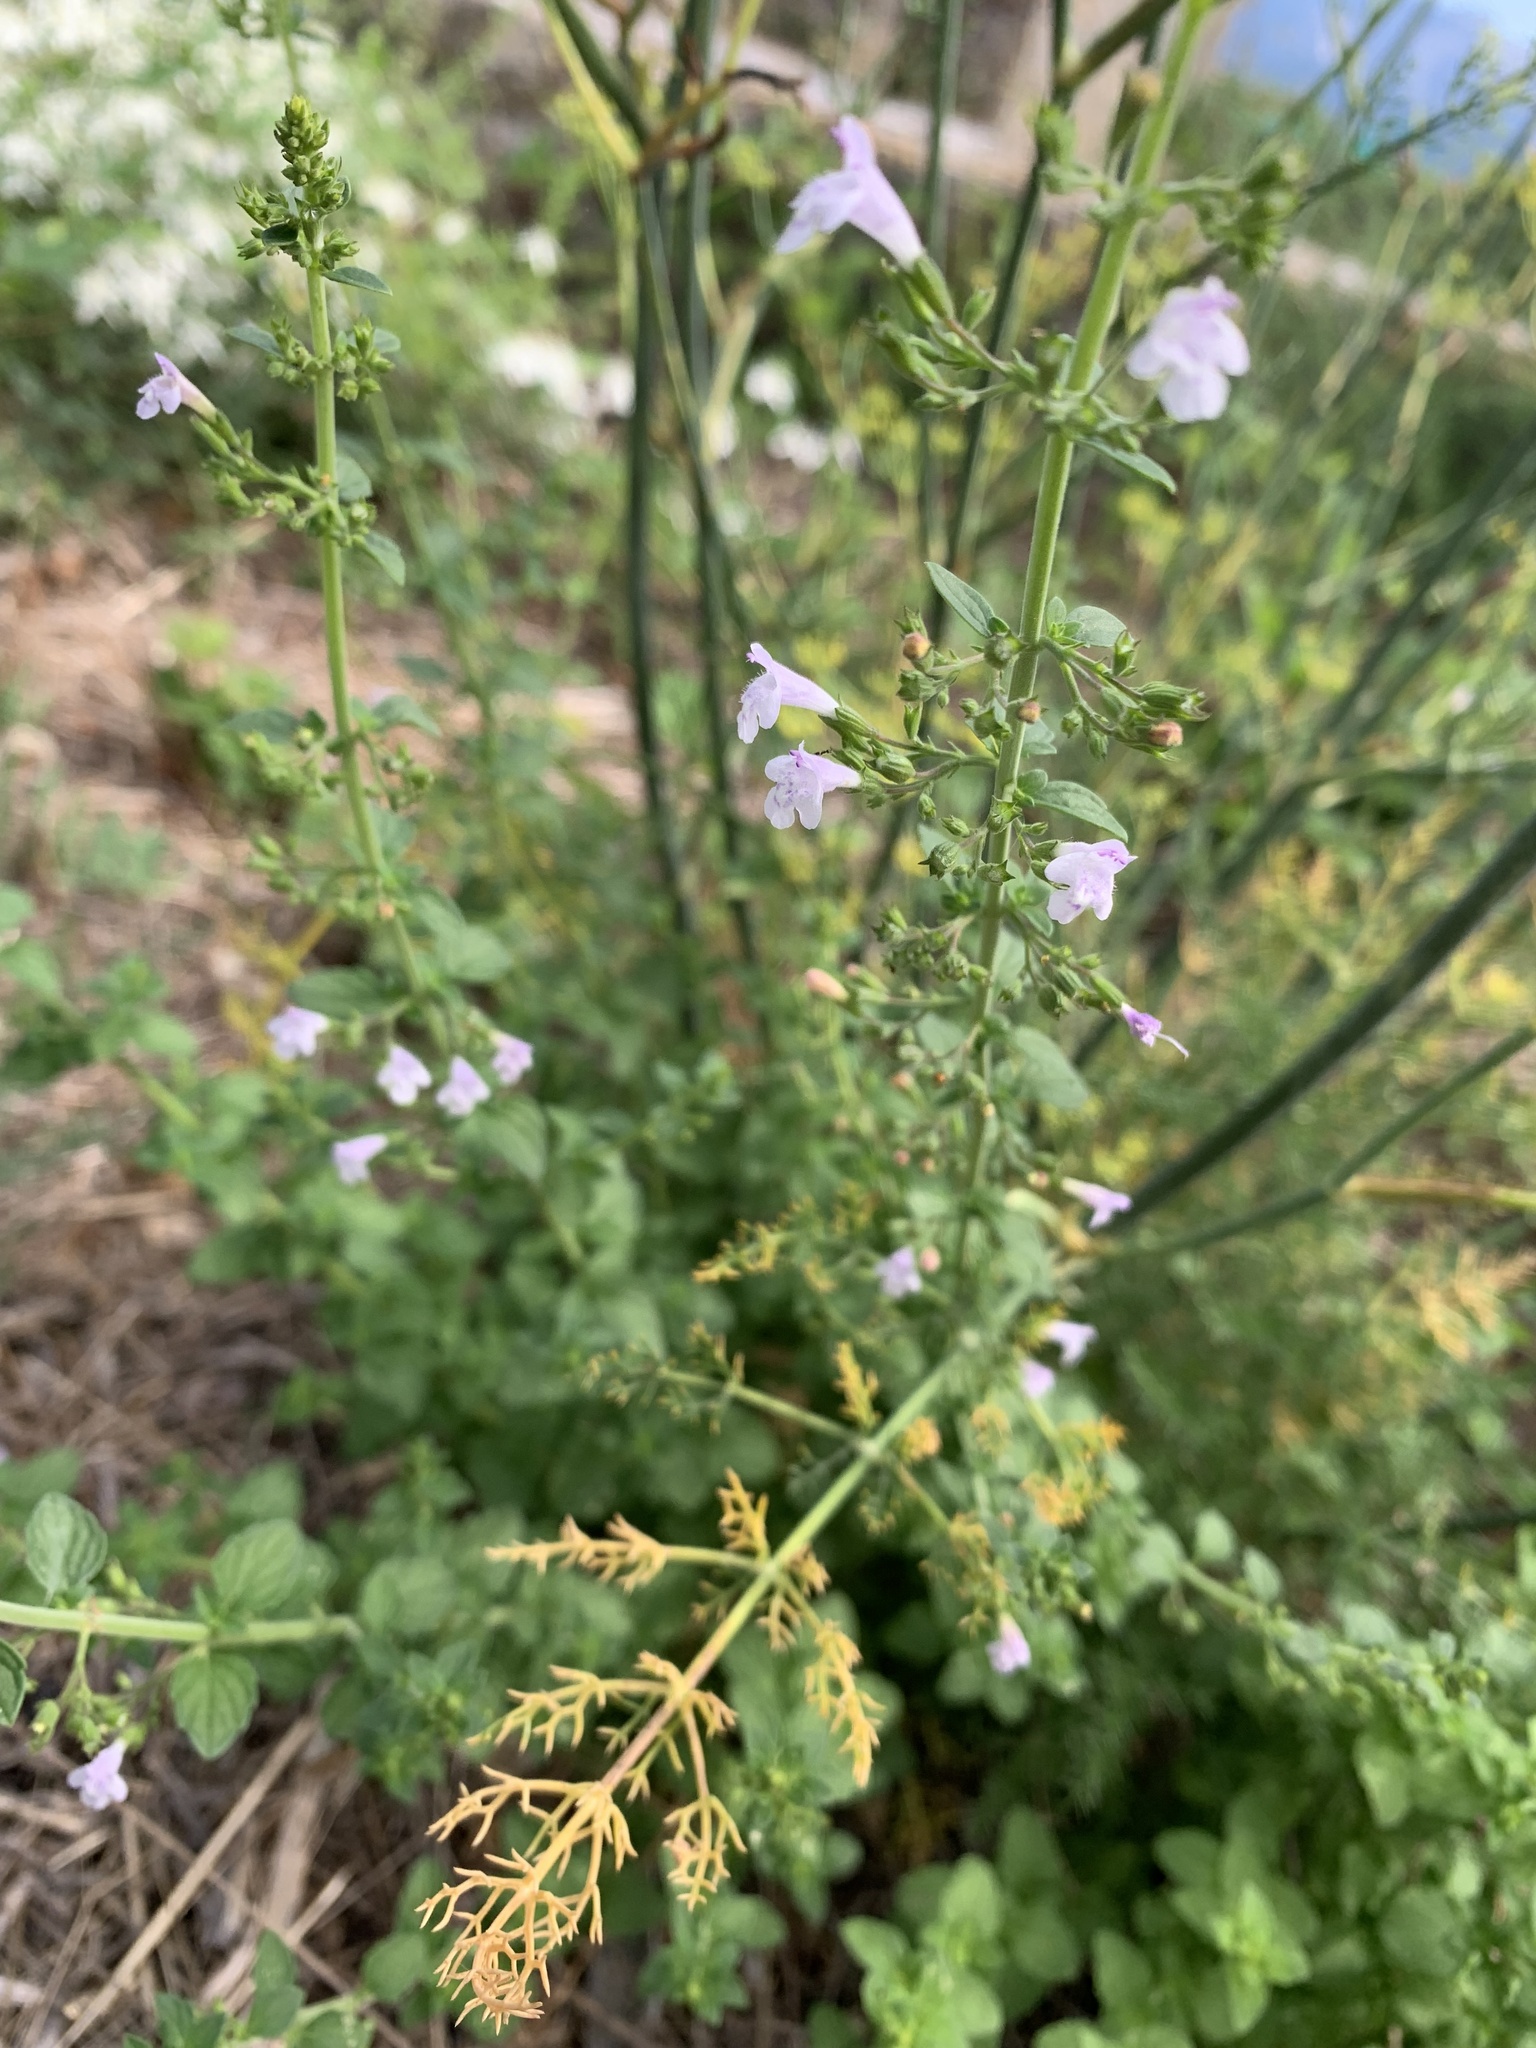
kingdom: Plantae
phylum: Tracheophyta
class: Magnoliopsida
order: Lamiales
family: Lamiaceae
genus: Clinopodium
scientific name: Clinopodium nepeta
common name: Lesser calamint
